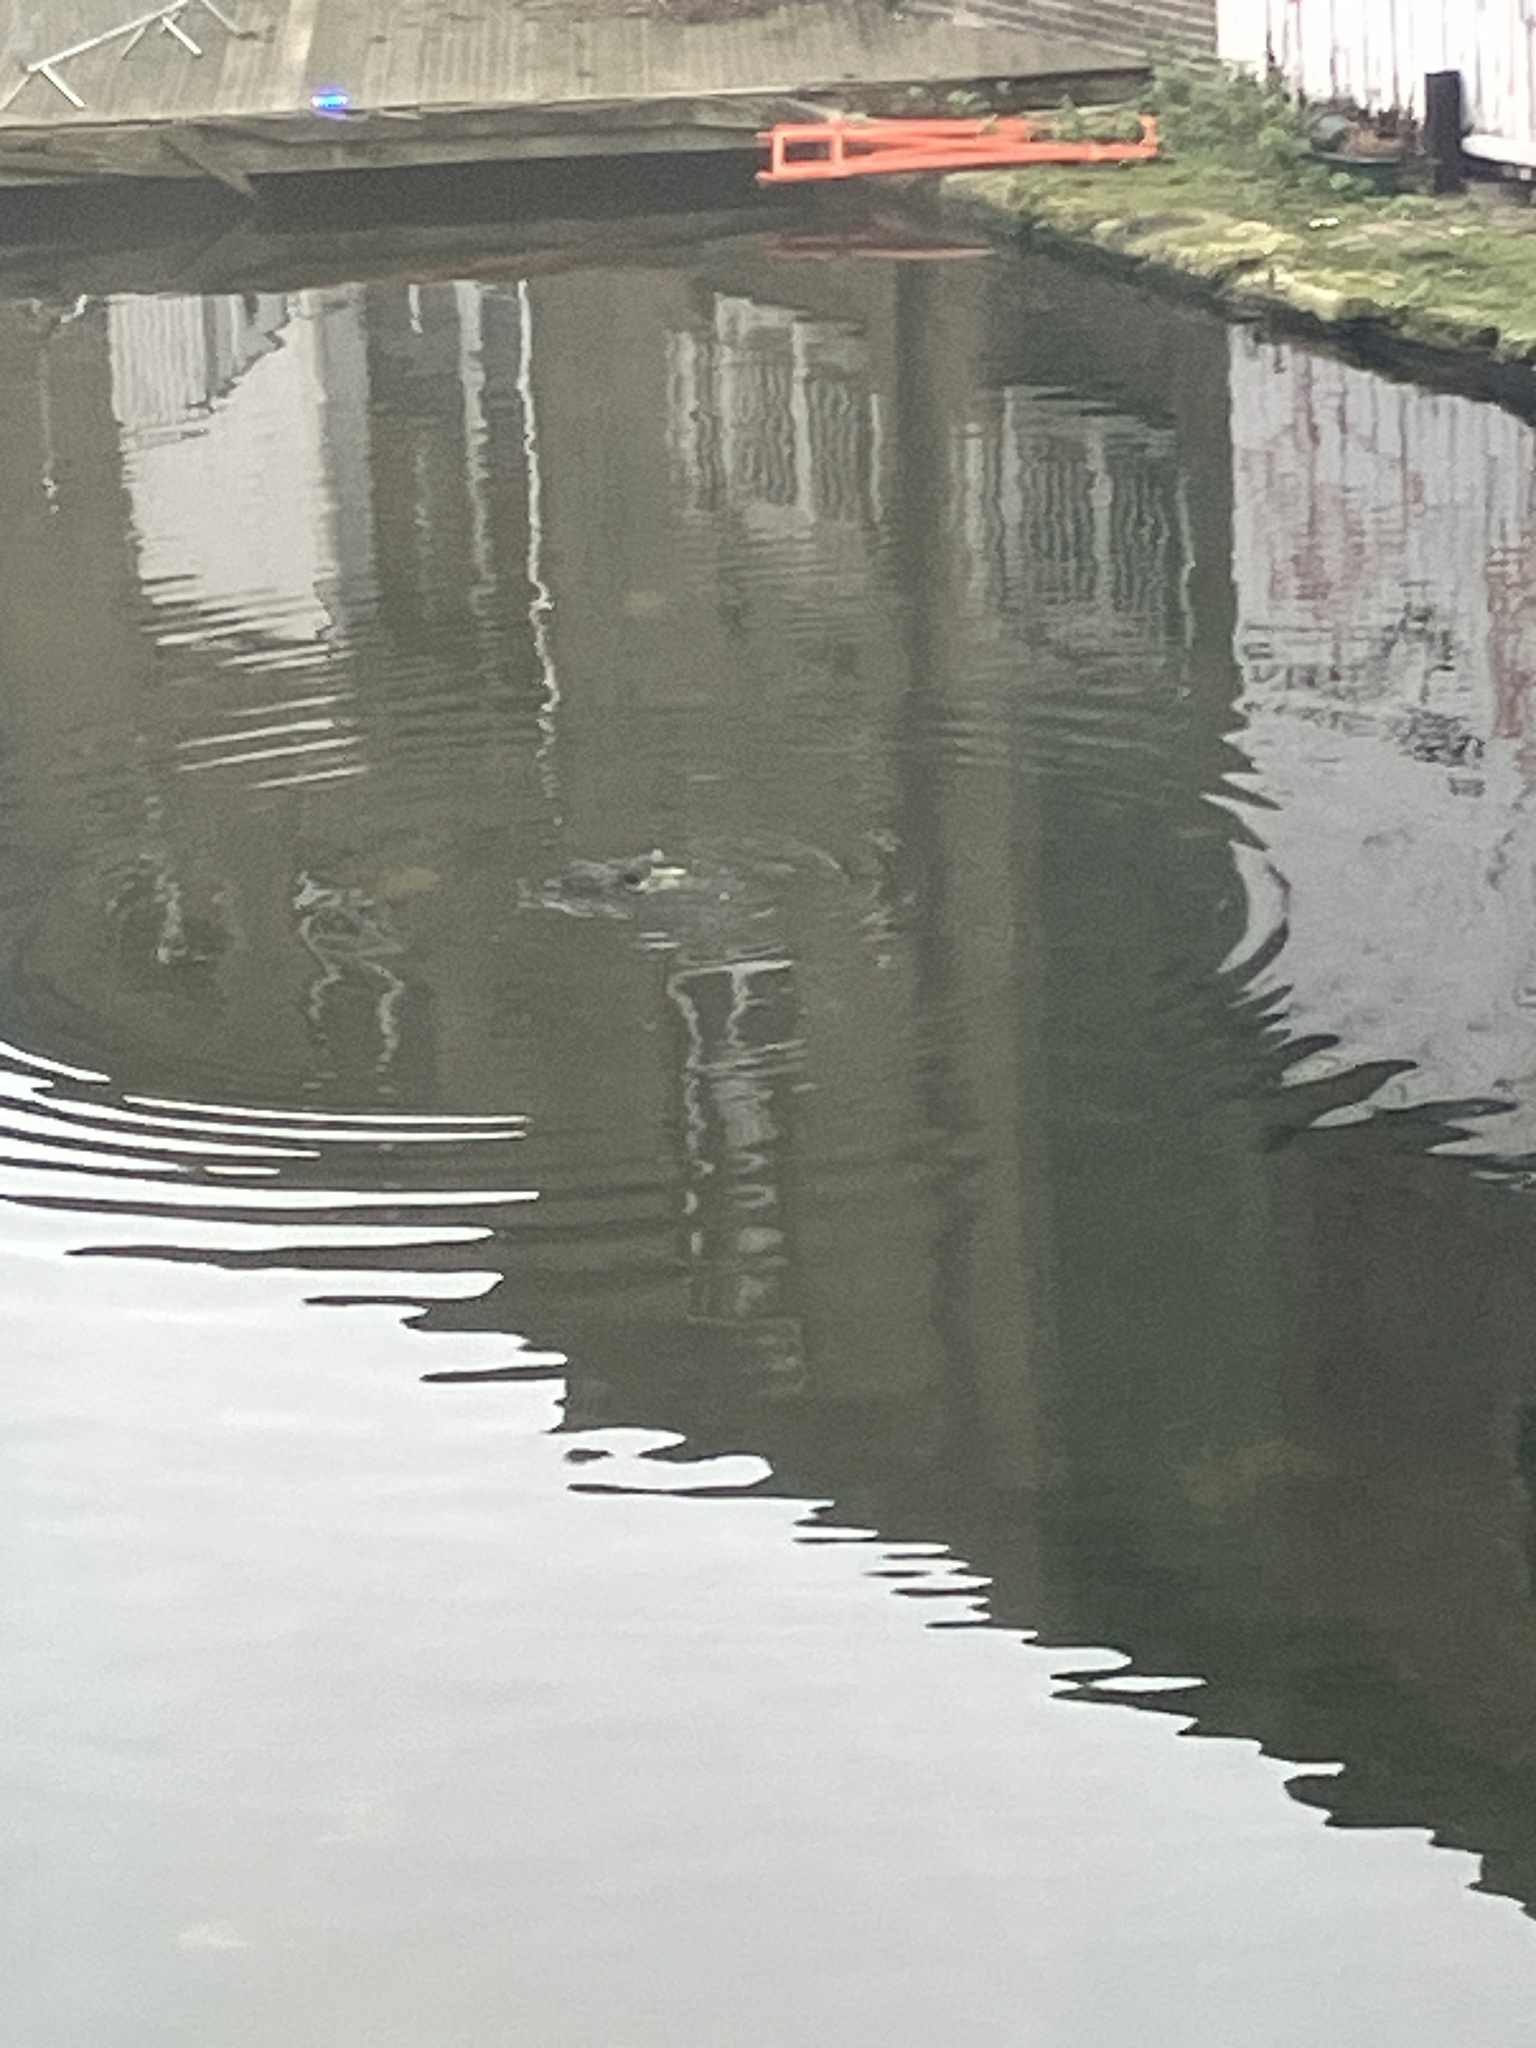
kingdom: Animalia
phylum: Chordata
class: Aves
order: Gruiformes
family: Rallidae
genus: Fulica
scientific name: Fulica atra
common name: Eurasian coot
